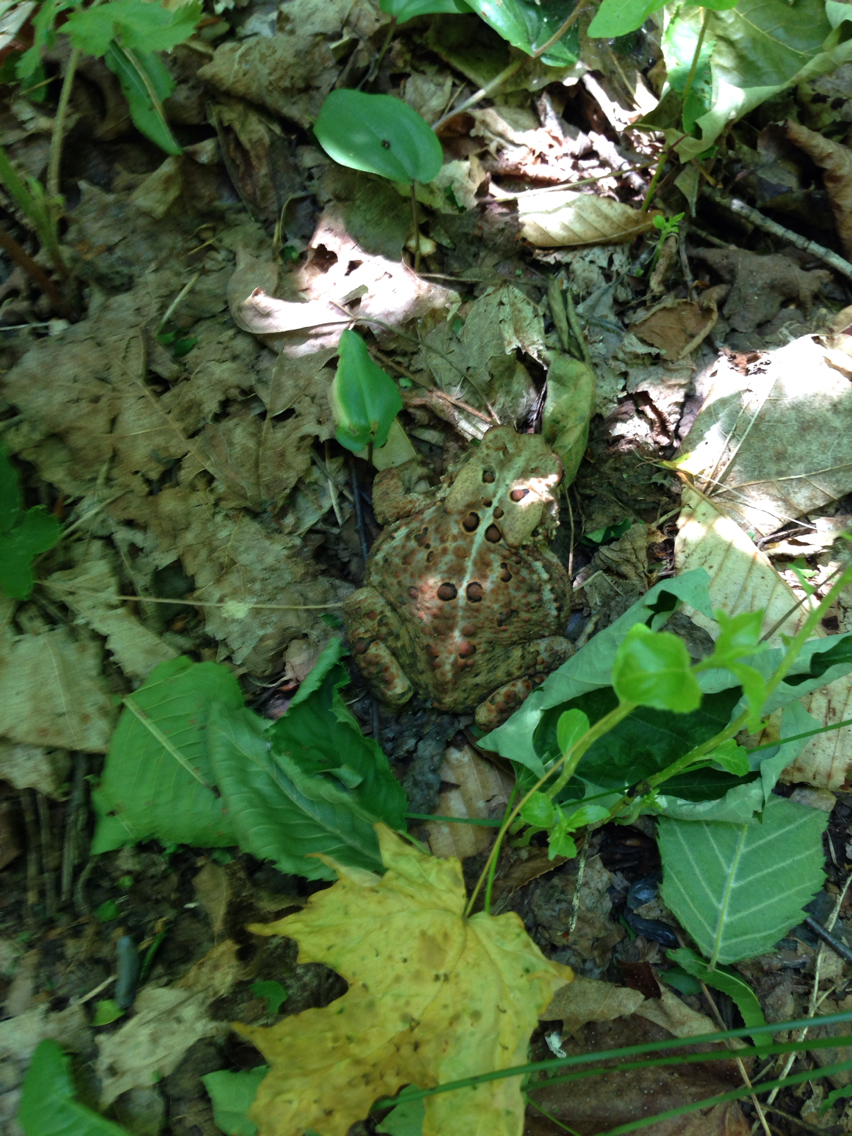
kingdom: Animalia
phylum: Chordata
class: Amphibia
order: Anura
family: Bufonidae
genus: Anaxyrus
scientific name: Anaxyrus americanus
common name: American toad
